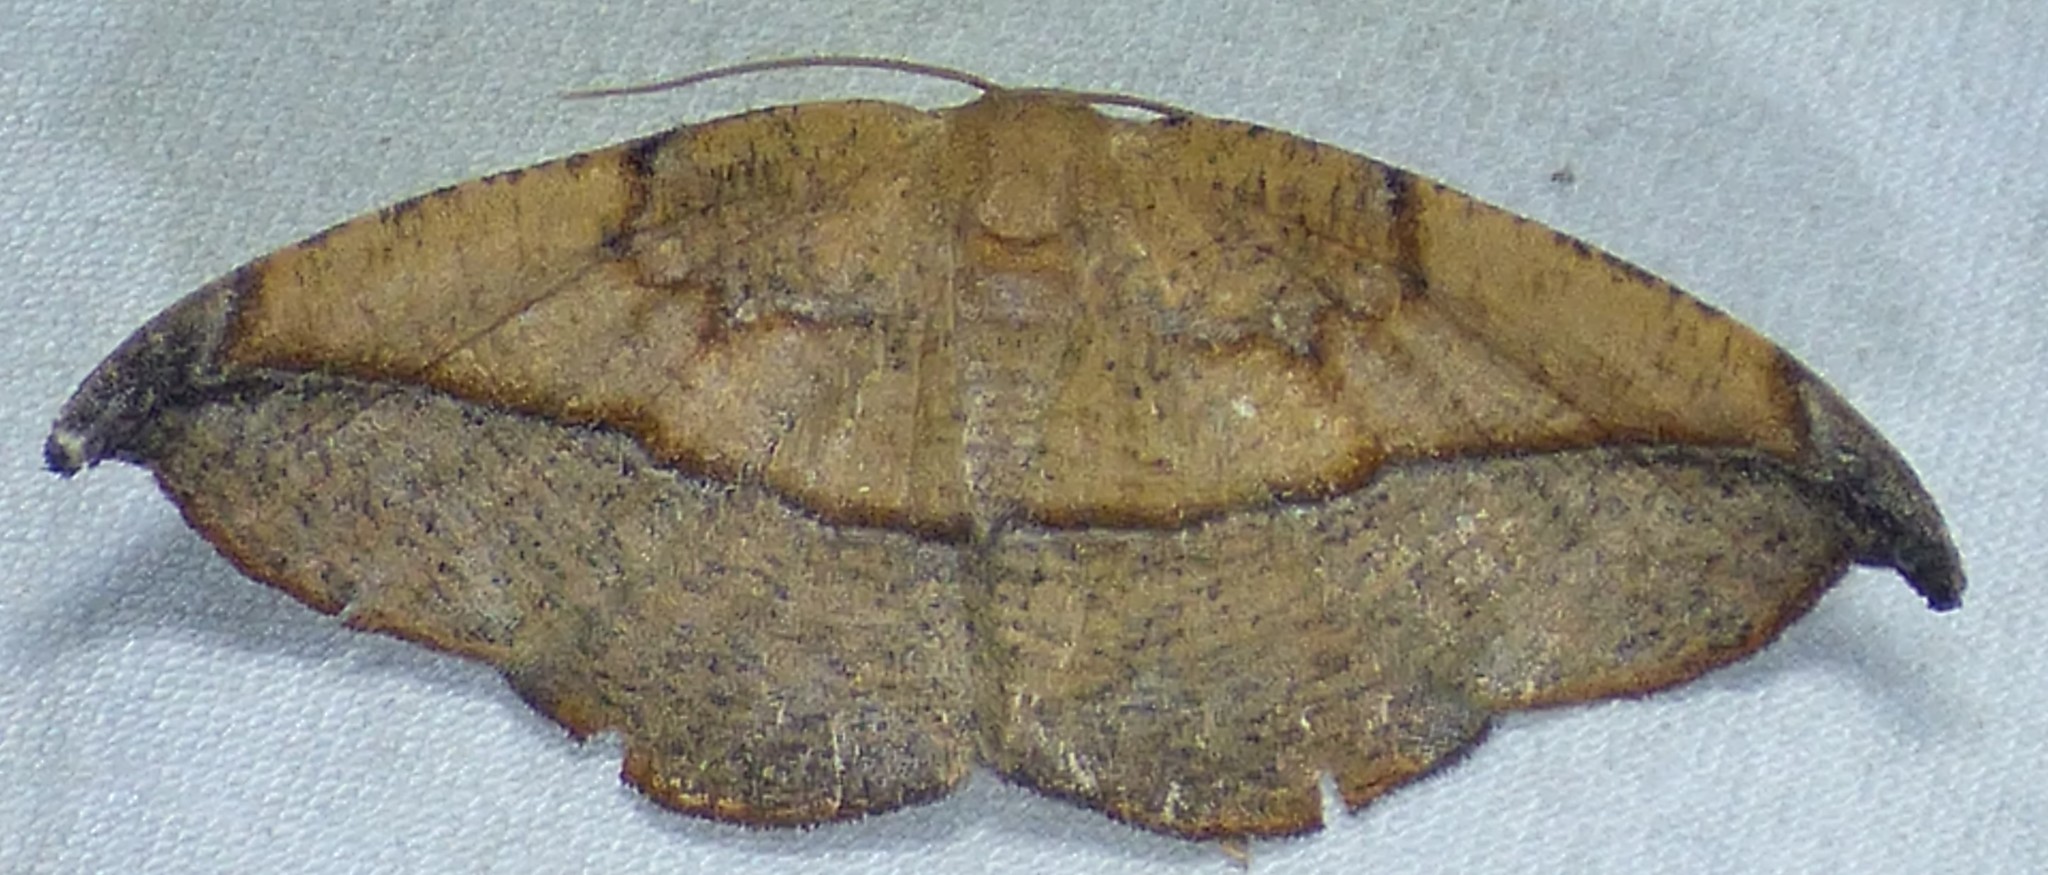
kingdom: Animalia
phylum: Arthropoda
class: Insecta
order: Lepidoptera
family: Geometridae
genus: Patalene
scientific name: Patalene olyzonaria
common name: Juniper geometer moth
